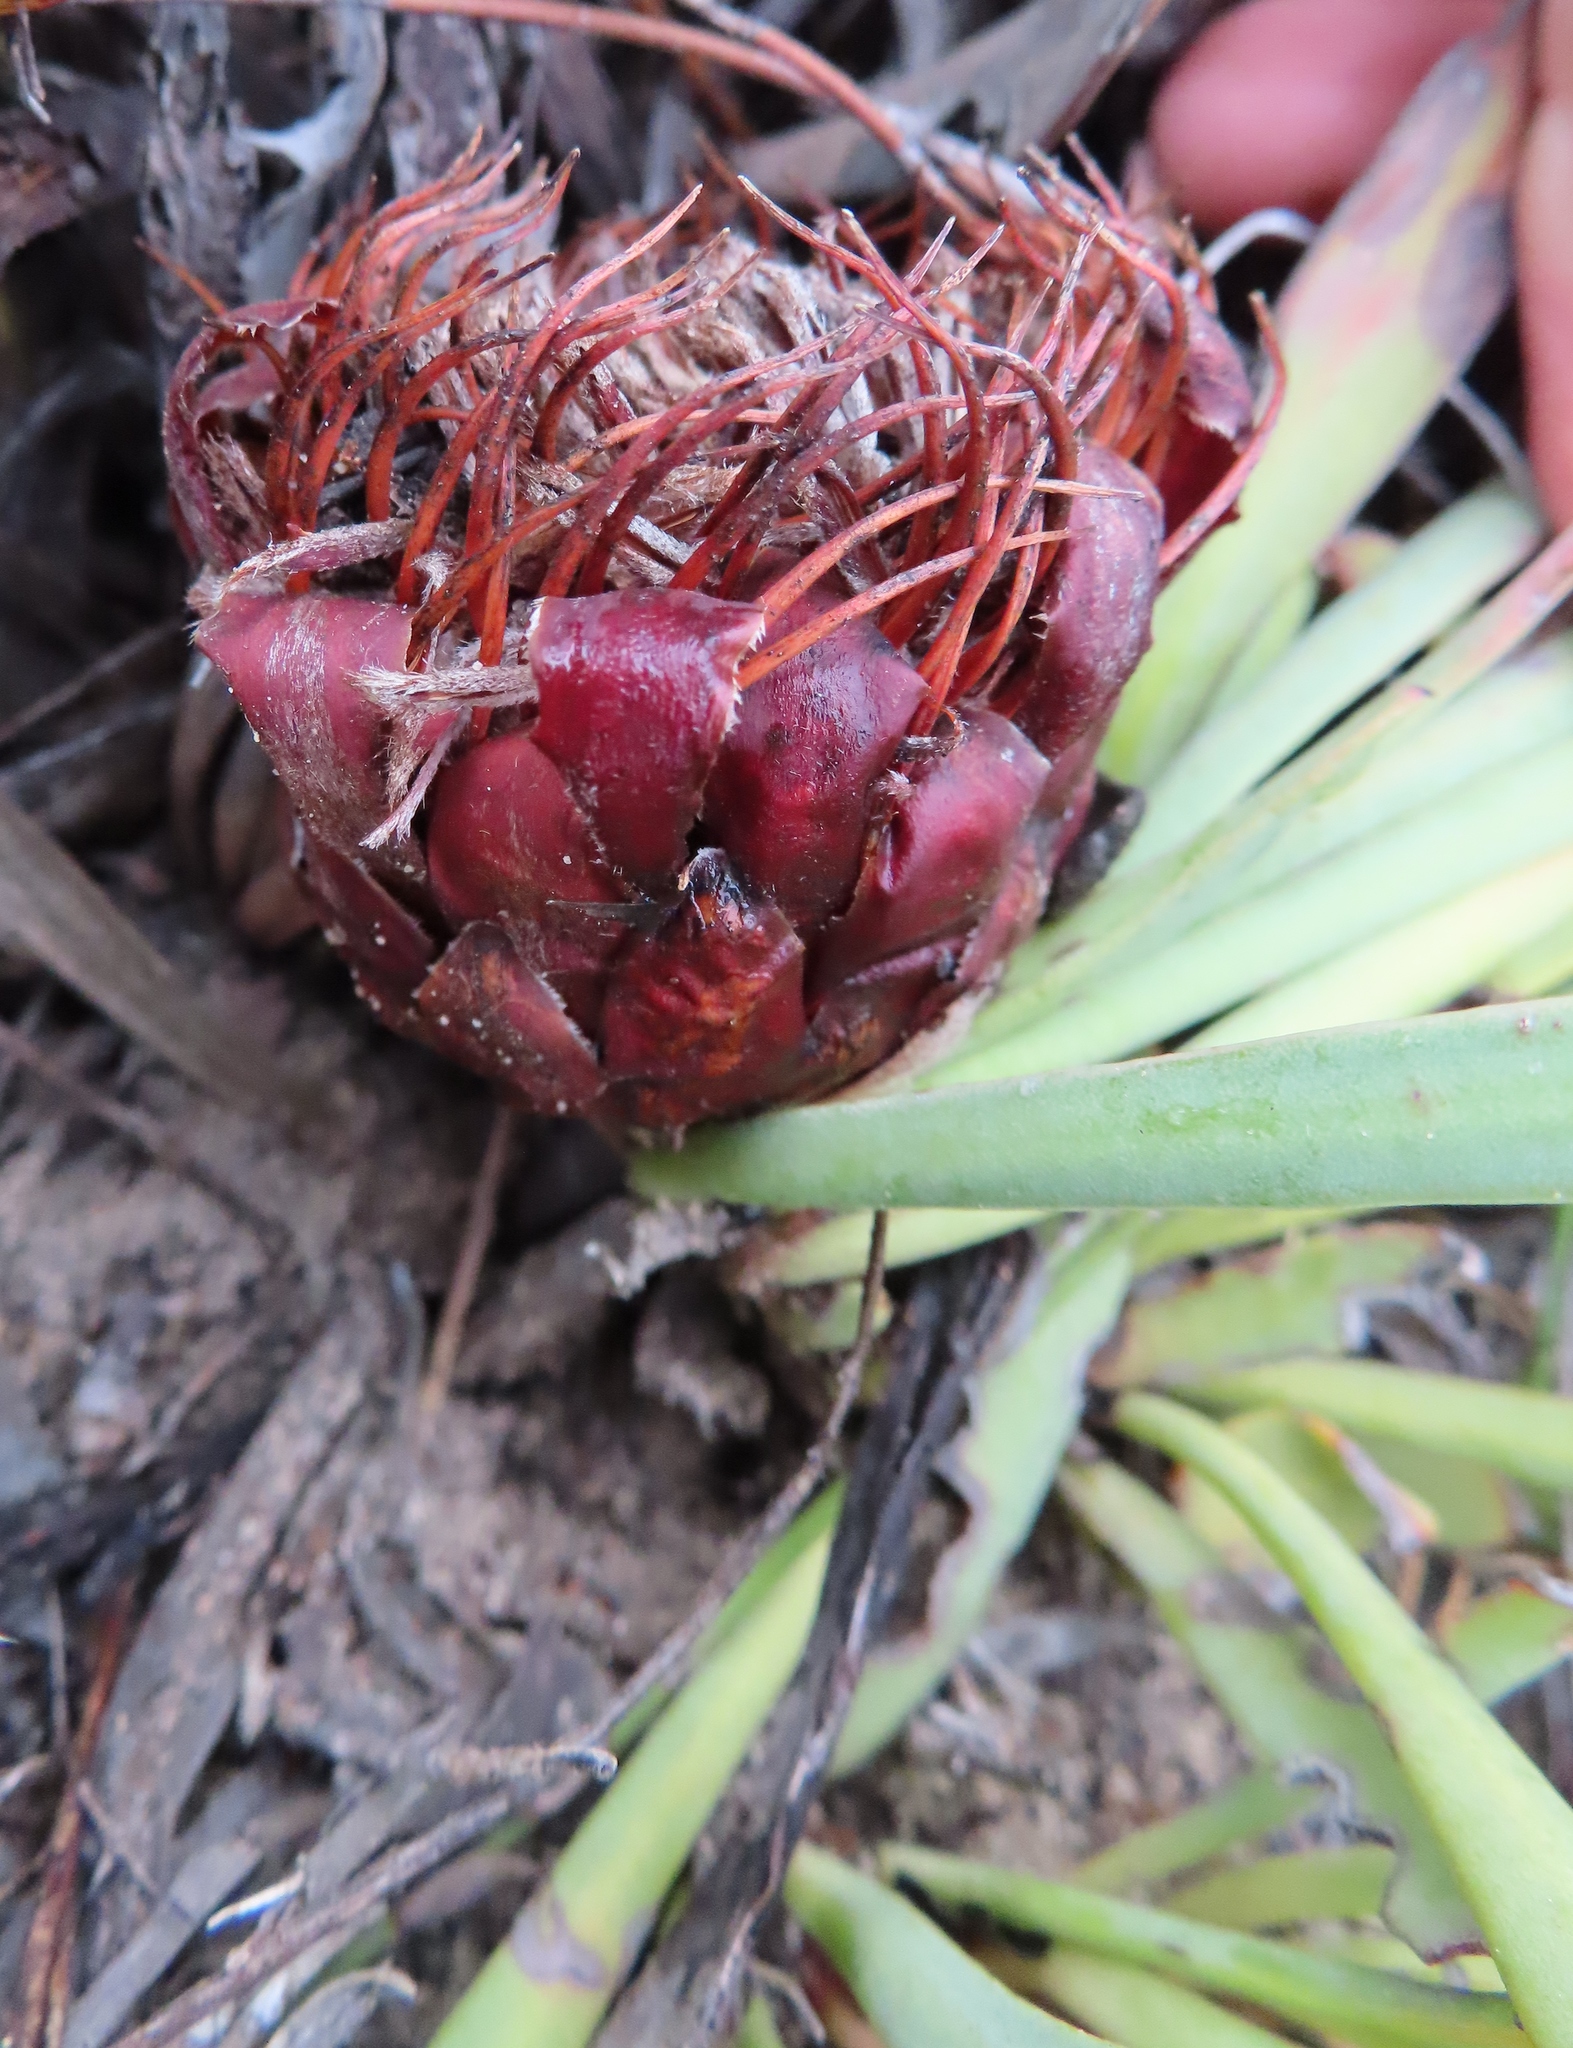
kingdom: Plantae
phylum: Tracheophyta
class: Magnoliopsida
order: Proteales
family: Proteaceae
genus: Protea
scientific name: Protea laevis
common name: Smooth-leaf sugarbush
